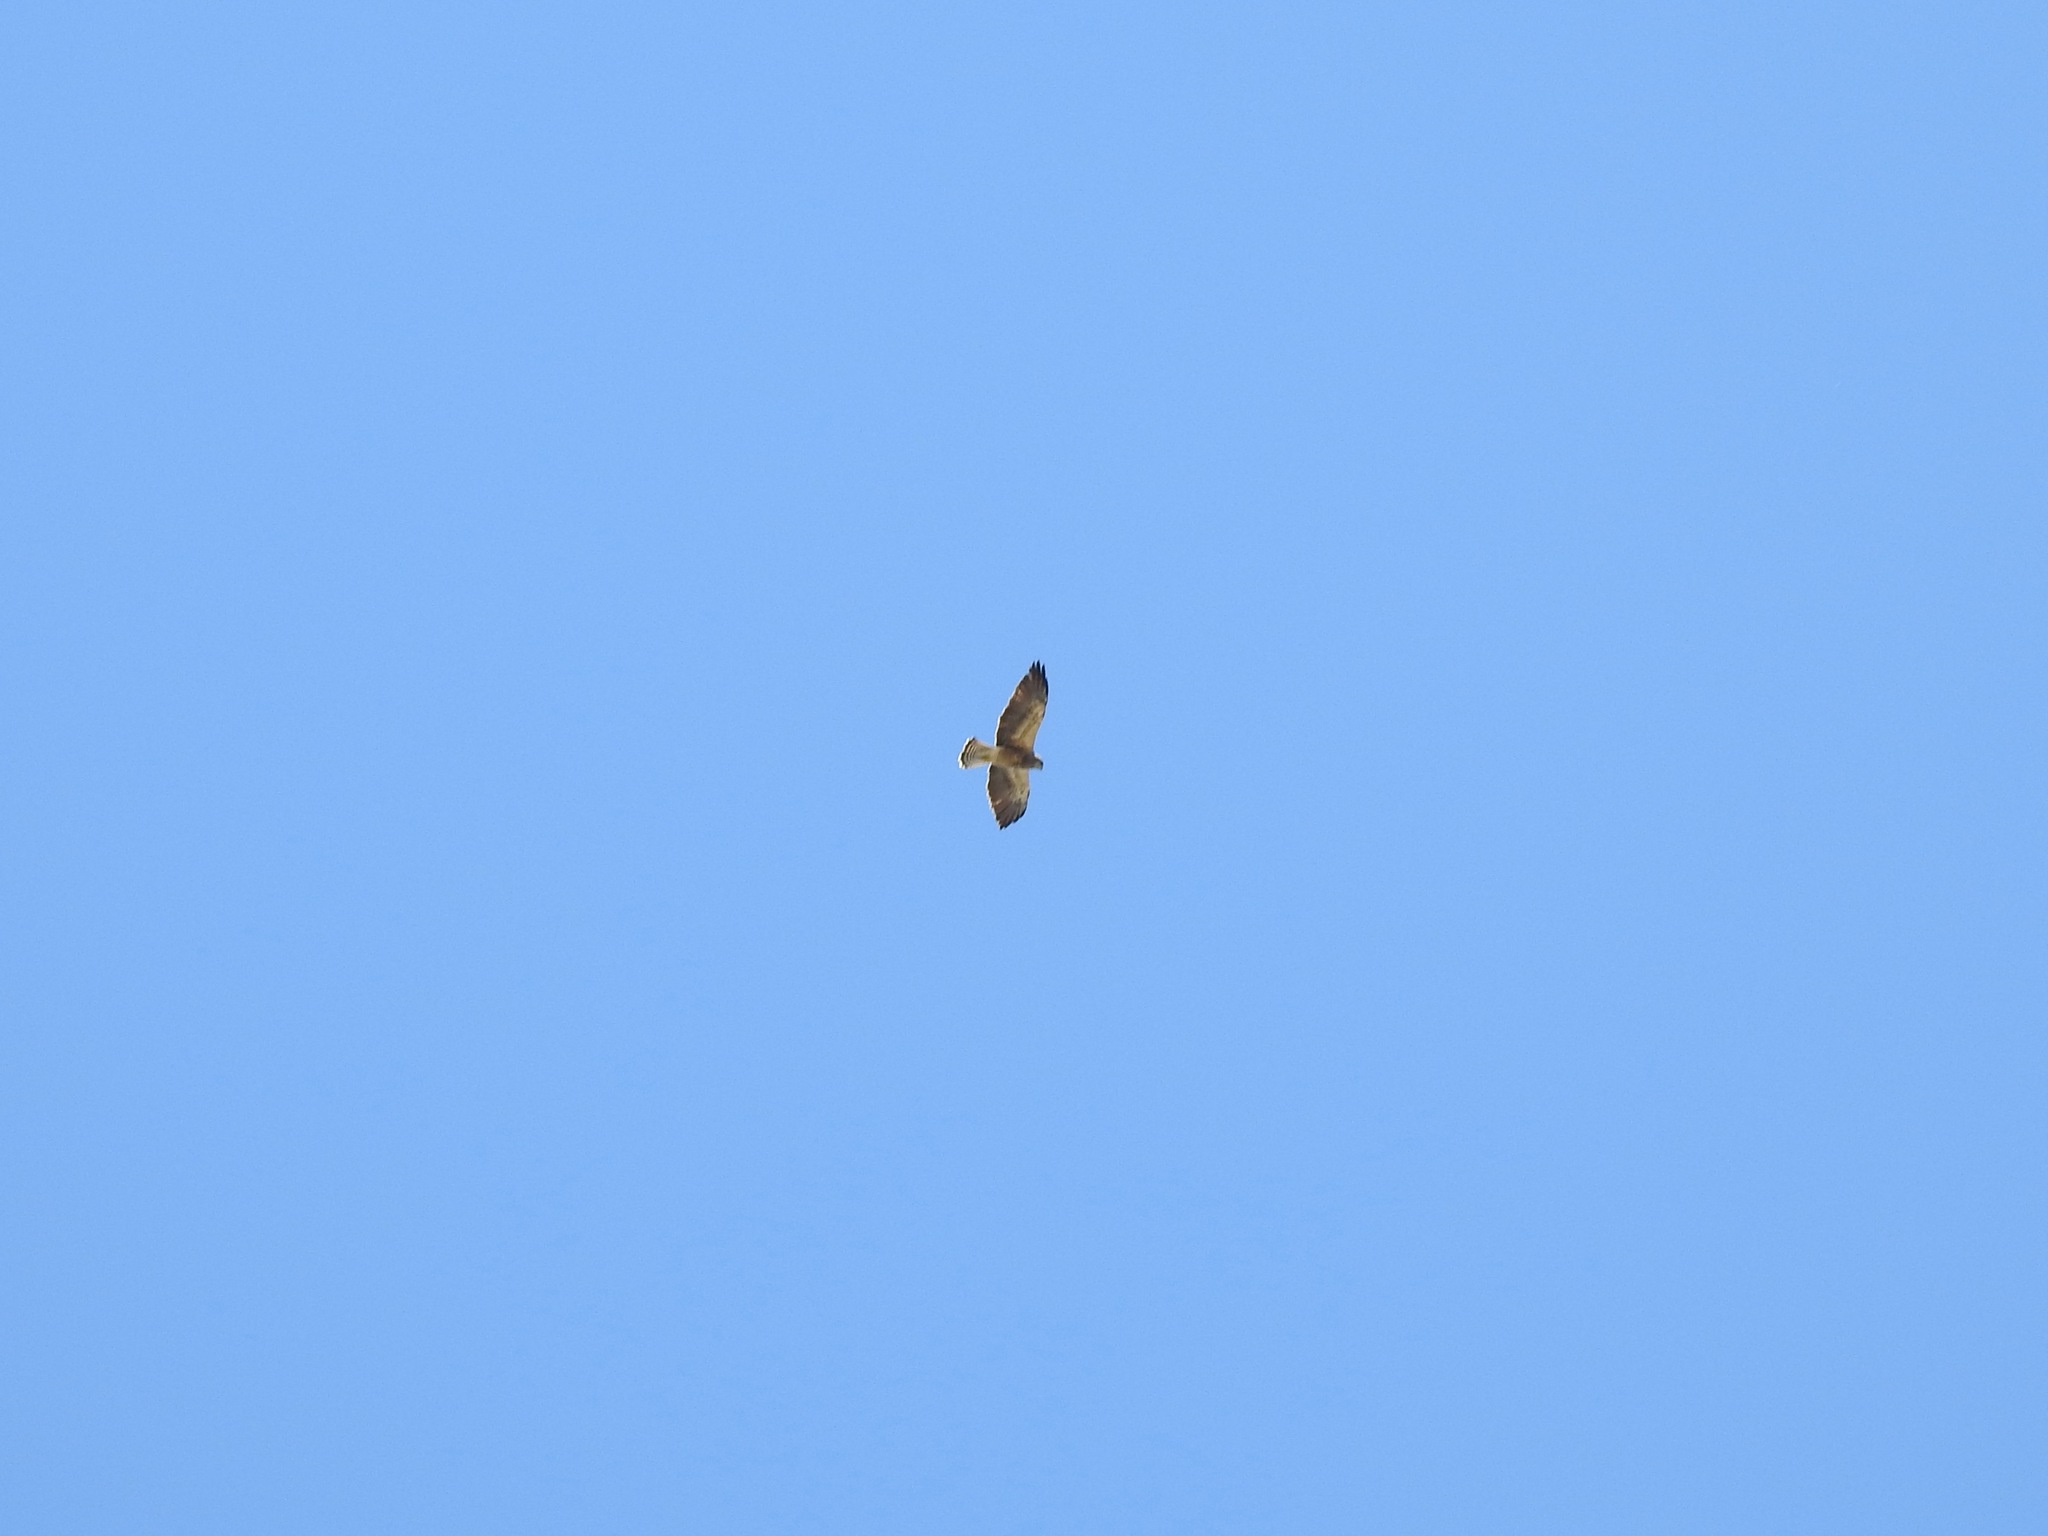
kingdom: Animalia
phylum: Chordata
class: Aves
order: Accipitriformes
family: Accipitridae
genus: Buteo
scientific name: Buteo swainsoni
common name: Swainson's hawk
